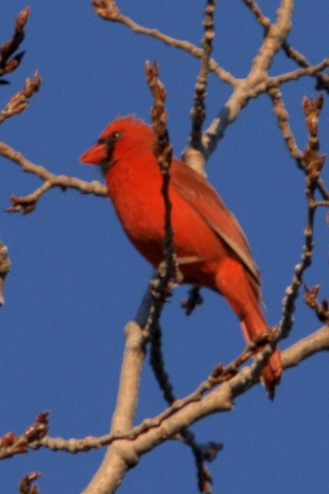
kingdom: Animalia
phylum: Chordata
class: Aves
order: Passeriformes
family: Cardinalidae
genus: Cardinalis
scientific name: Cardinalis cardinalis
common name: Northern cardinal
